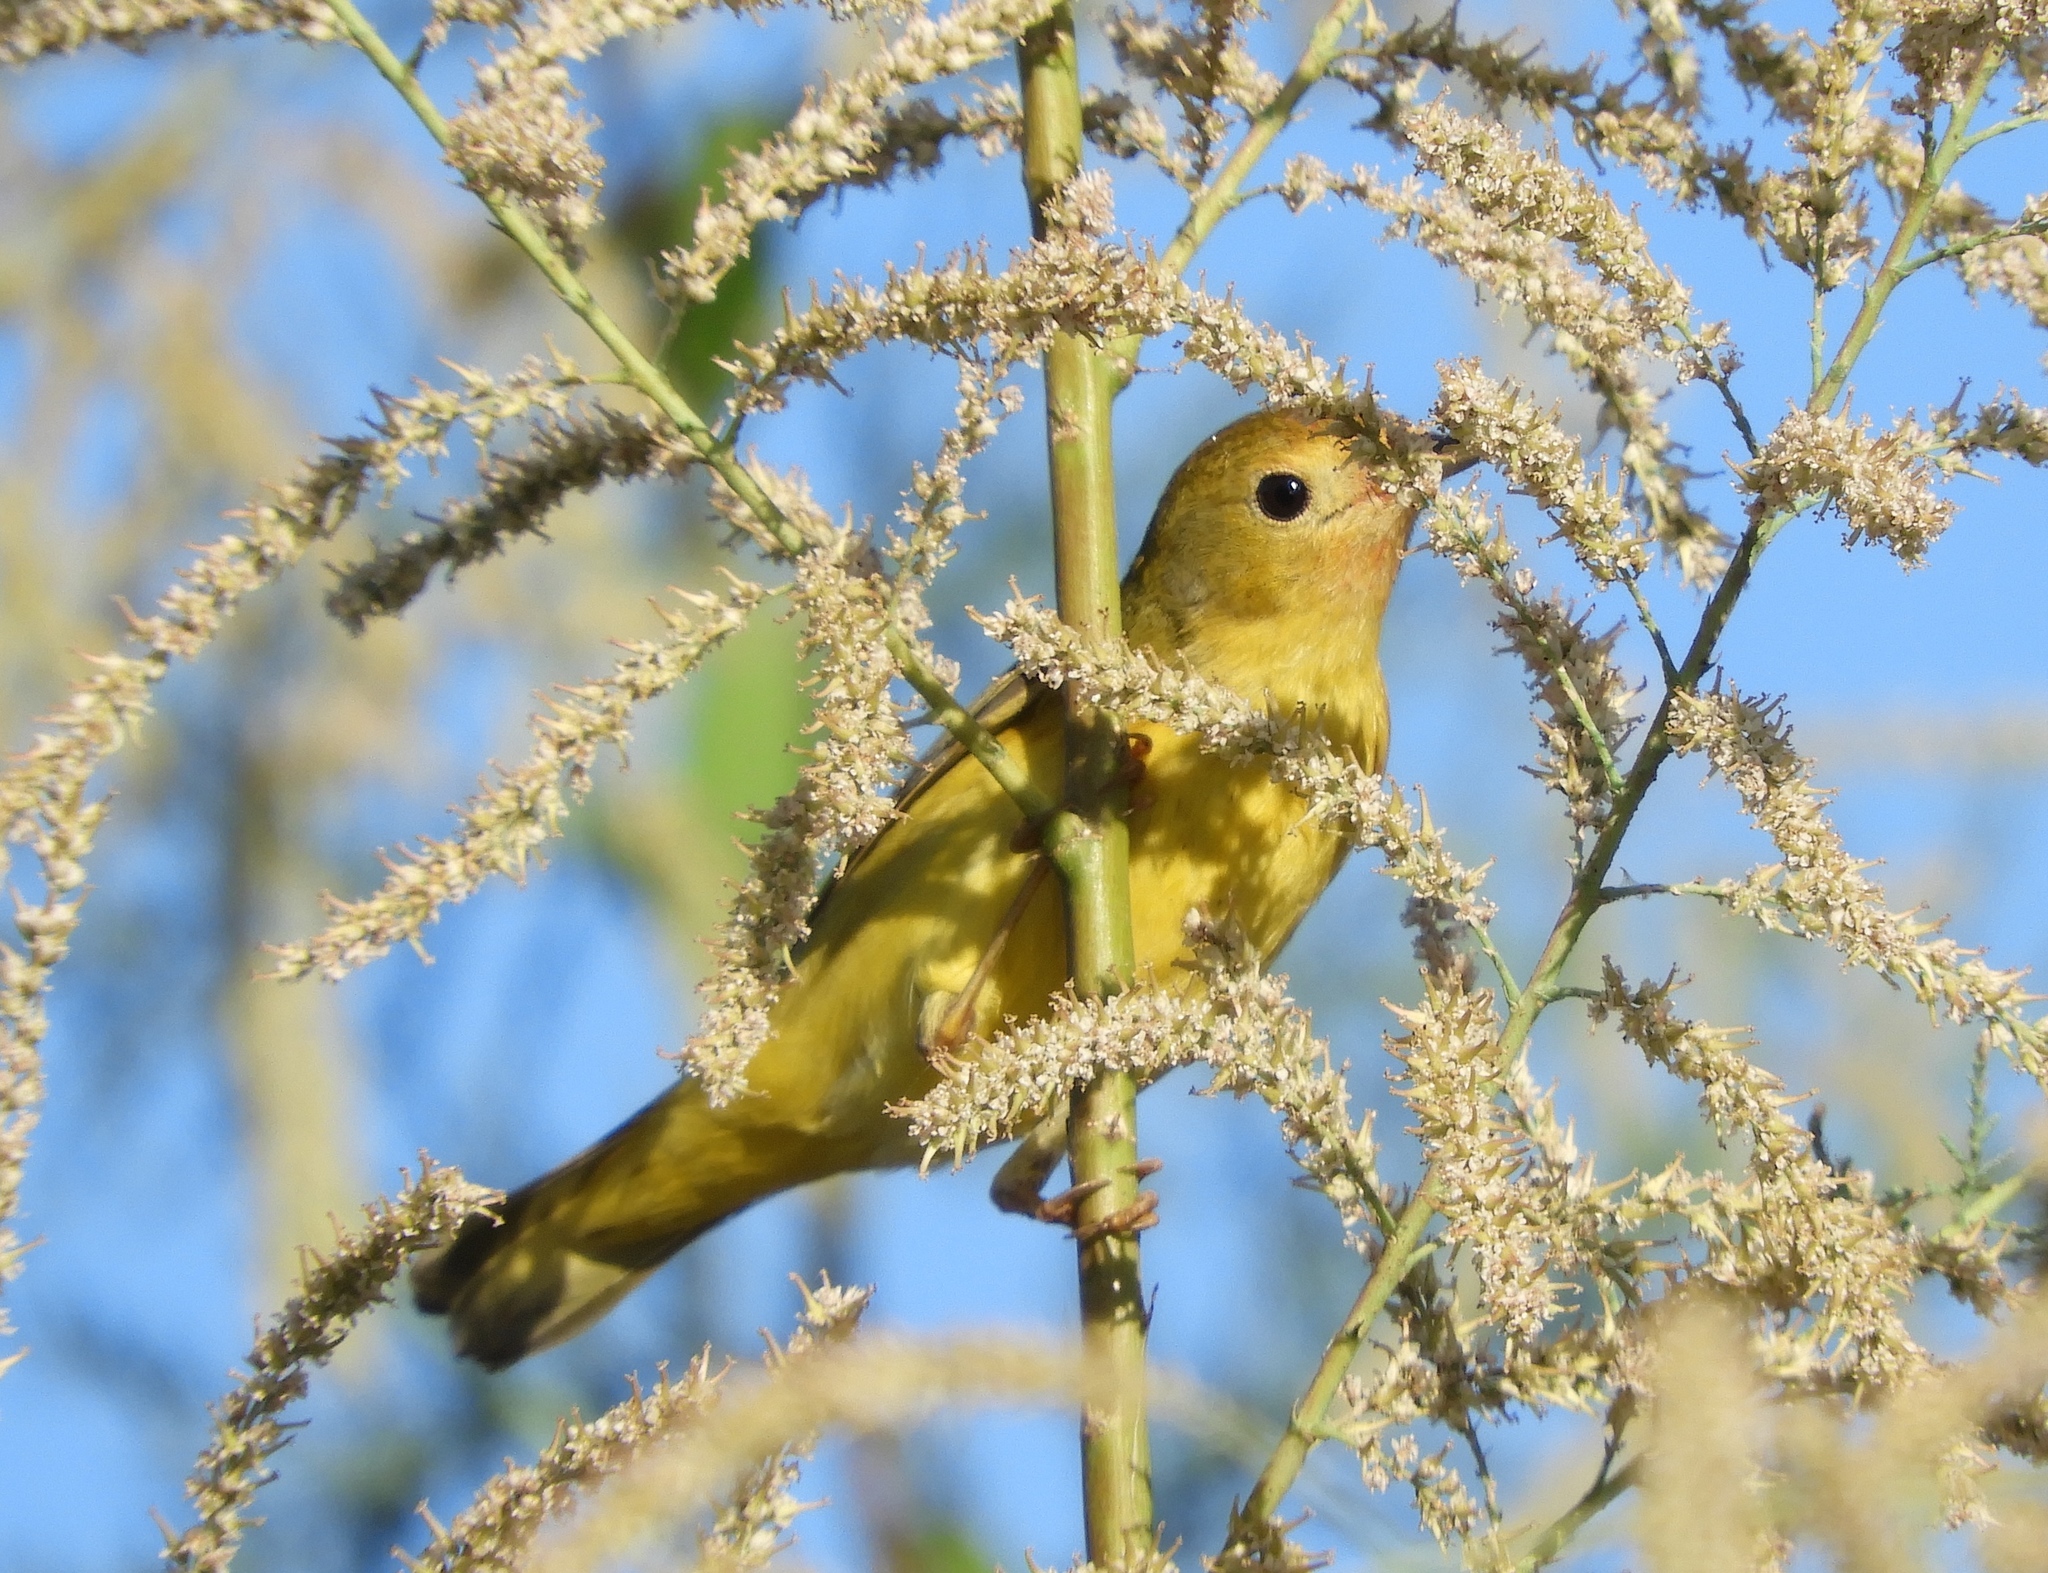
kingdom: Animalia
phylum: Chordata
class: Aves
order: Passeriformes
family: Parulidae
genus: Setophaga
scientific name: Setophaga petechia
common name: Yellow warbler
